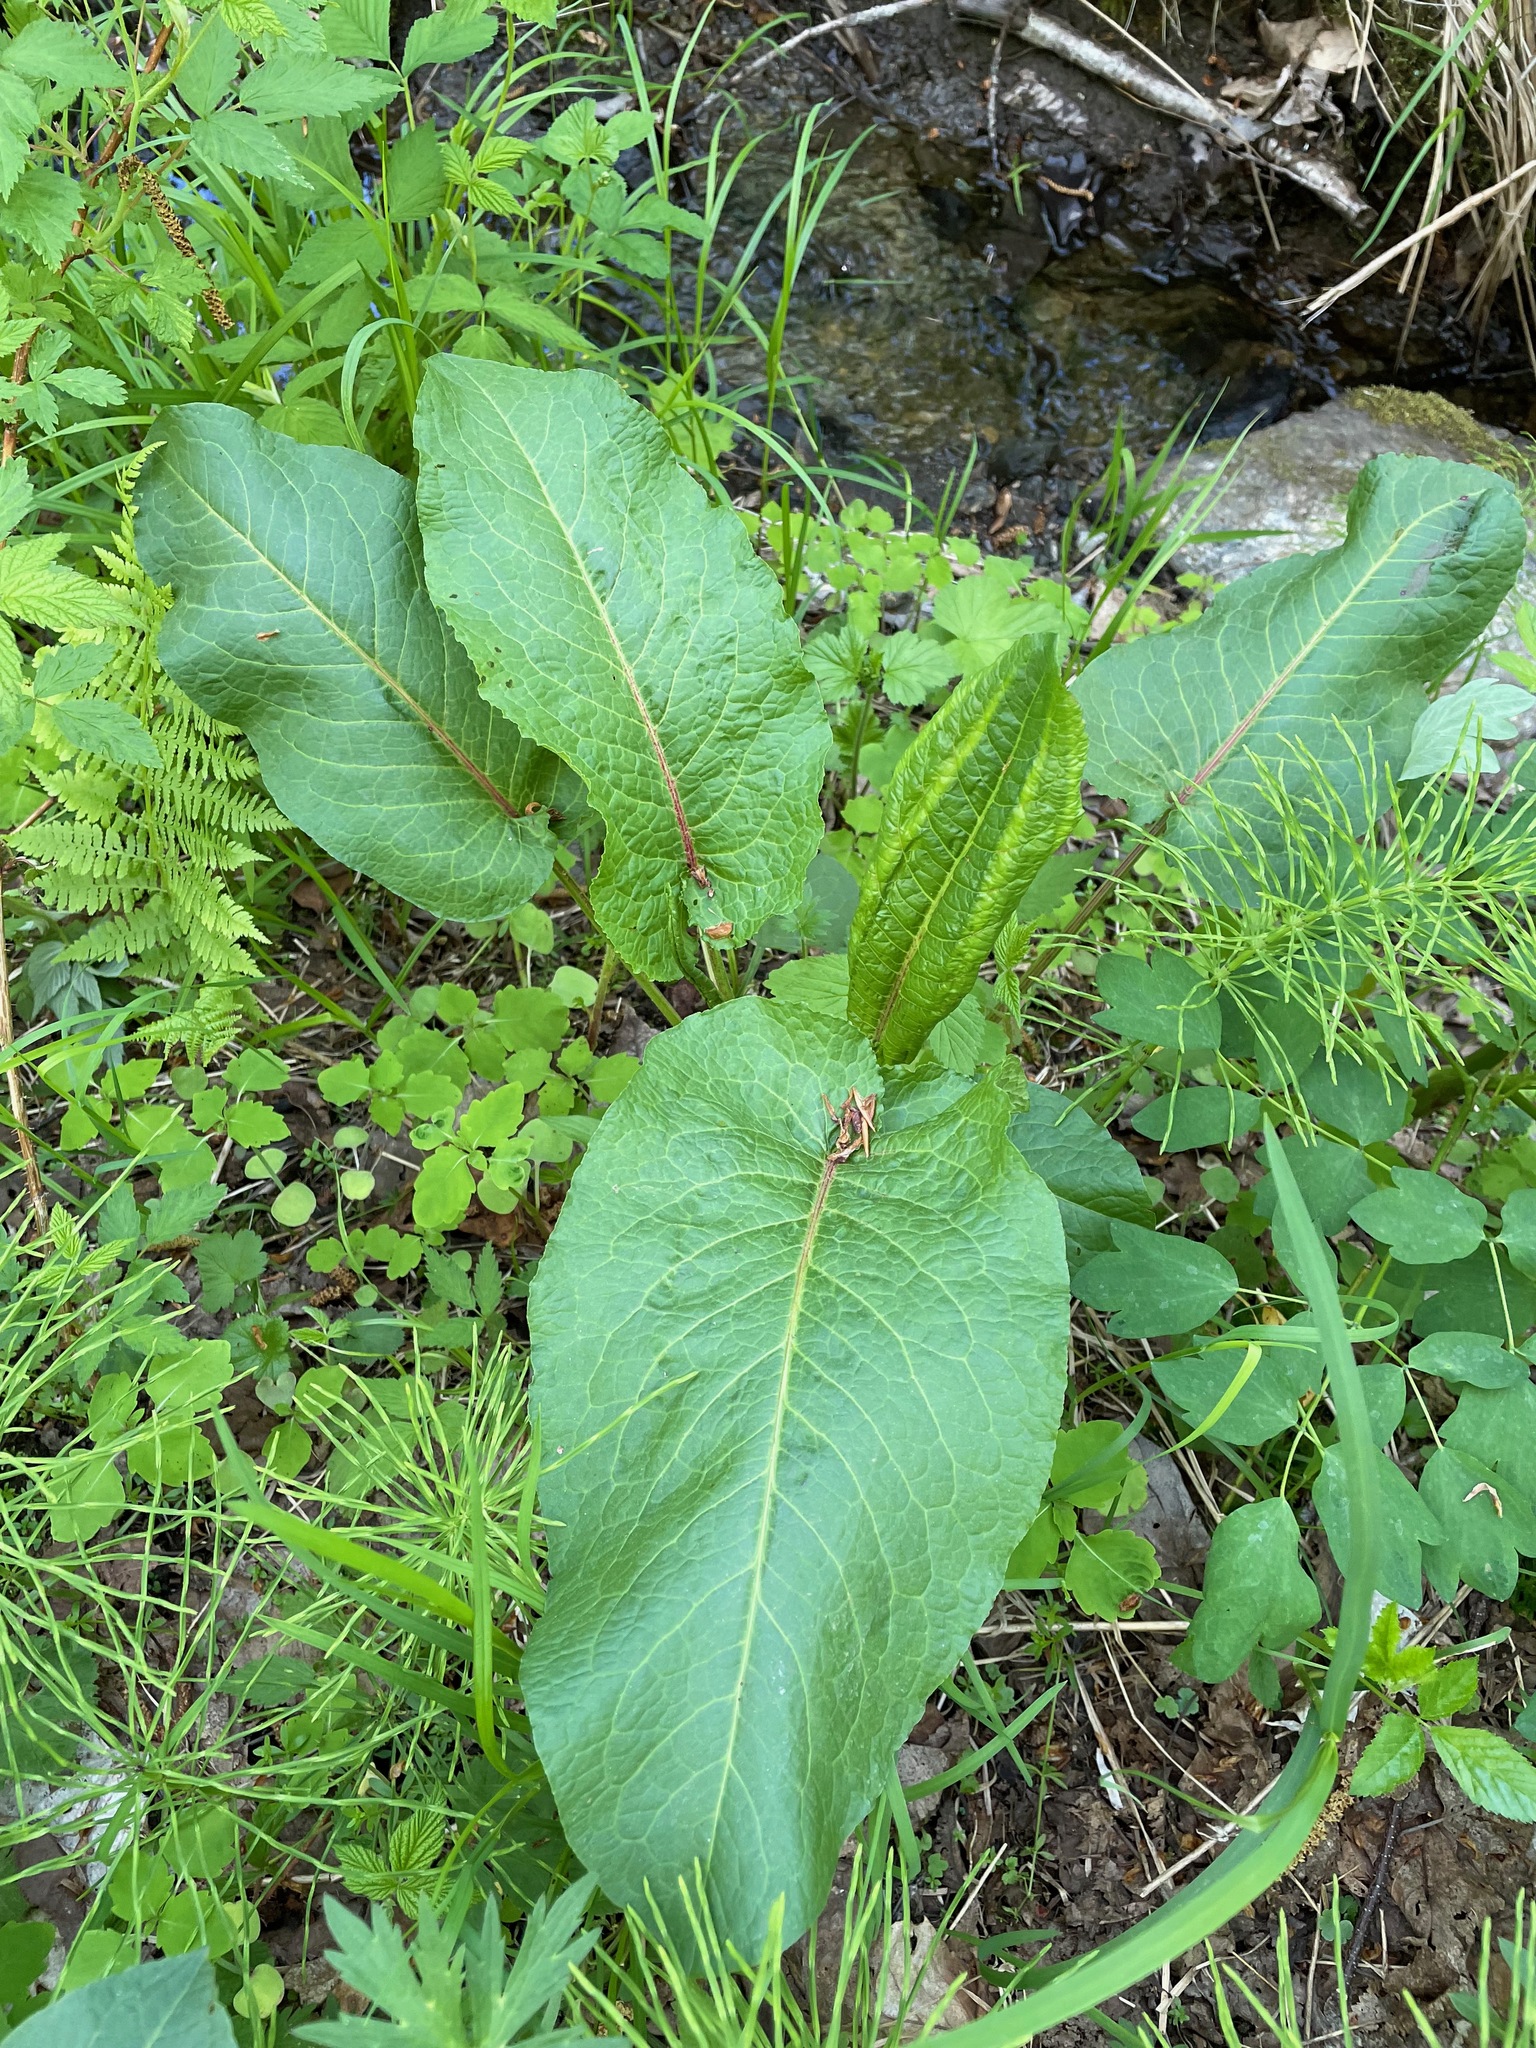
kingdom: Plantae
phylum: Tracheophyta
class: Magnoliopsida
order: Caryophyllales
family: Polygonaceae
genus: Rumex
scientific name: Rumex obtusifolius
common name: Bitter dock
